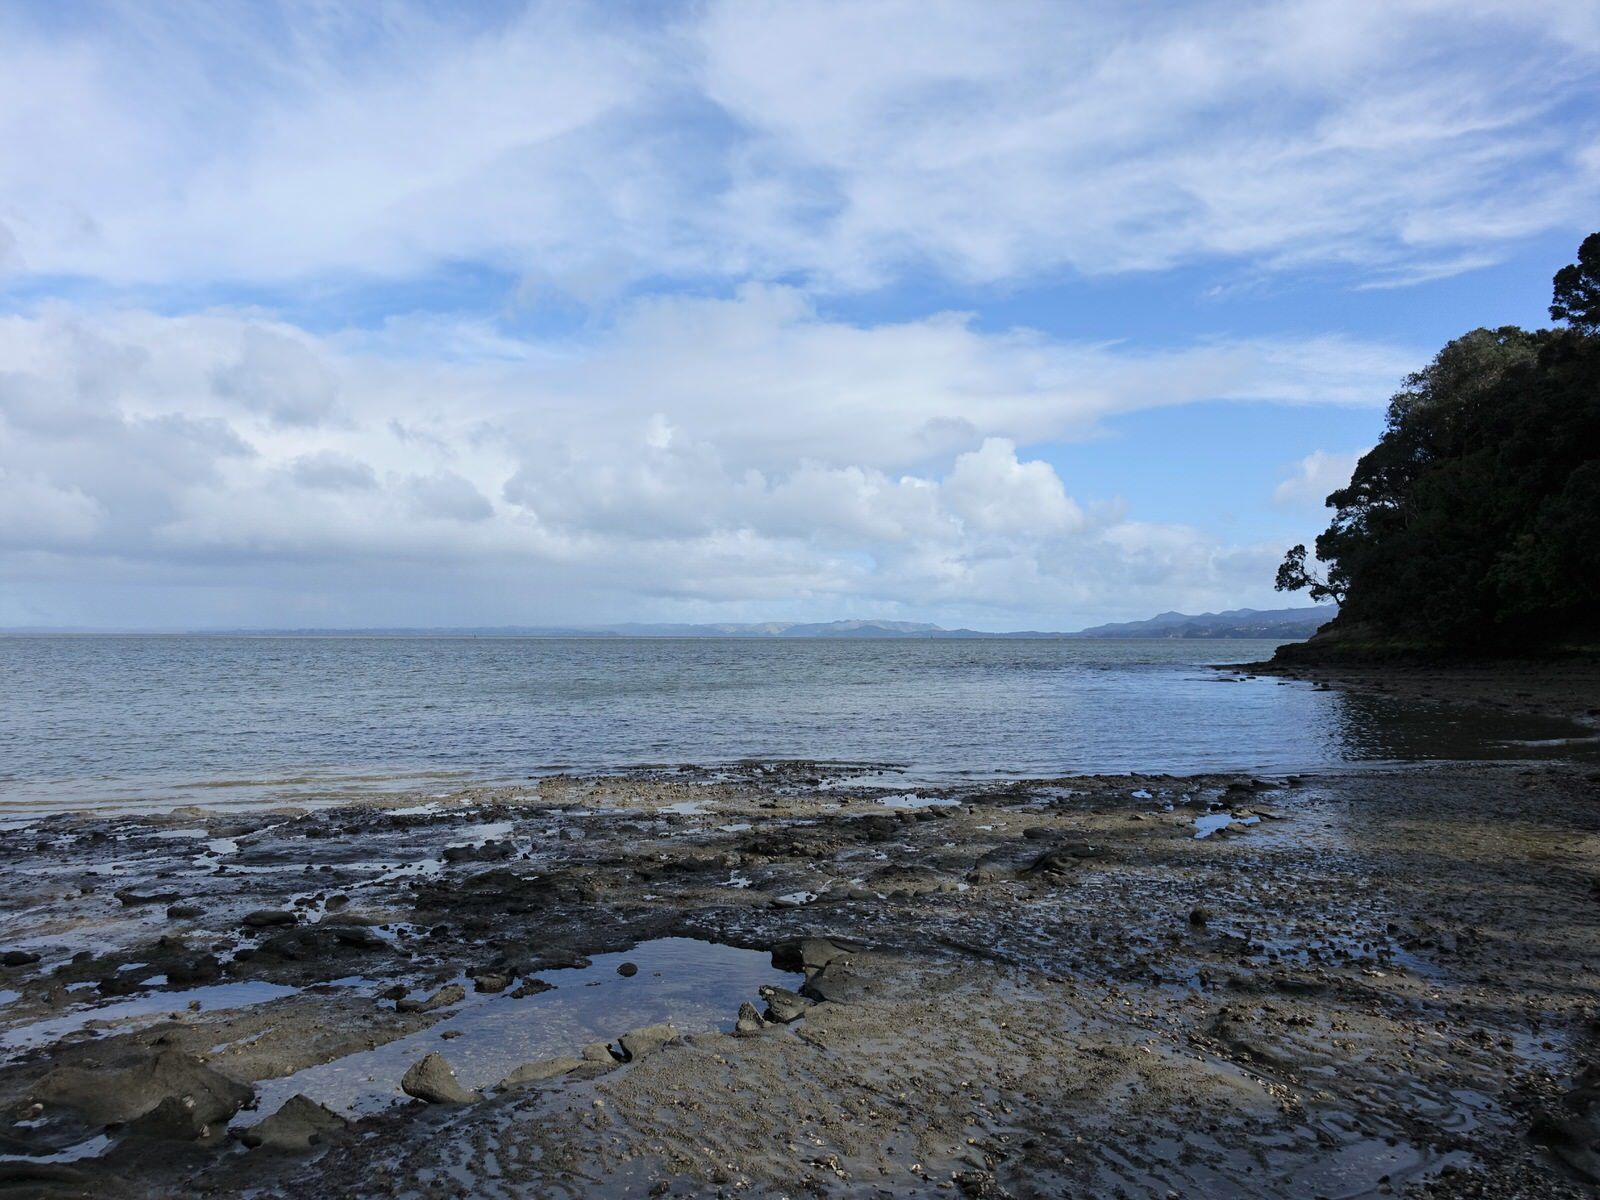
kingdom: Animalia
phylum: Chordata
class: Aves
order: Charadriiformes
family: Laridae
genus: Hydroprogne
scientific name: Hydroprogne caspia
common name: Caspian tern
